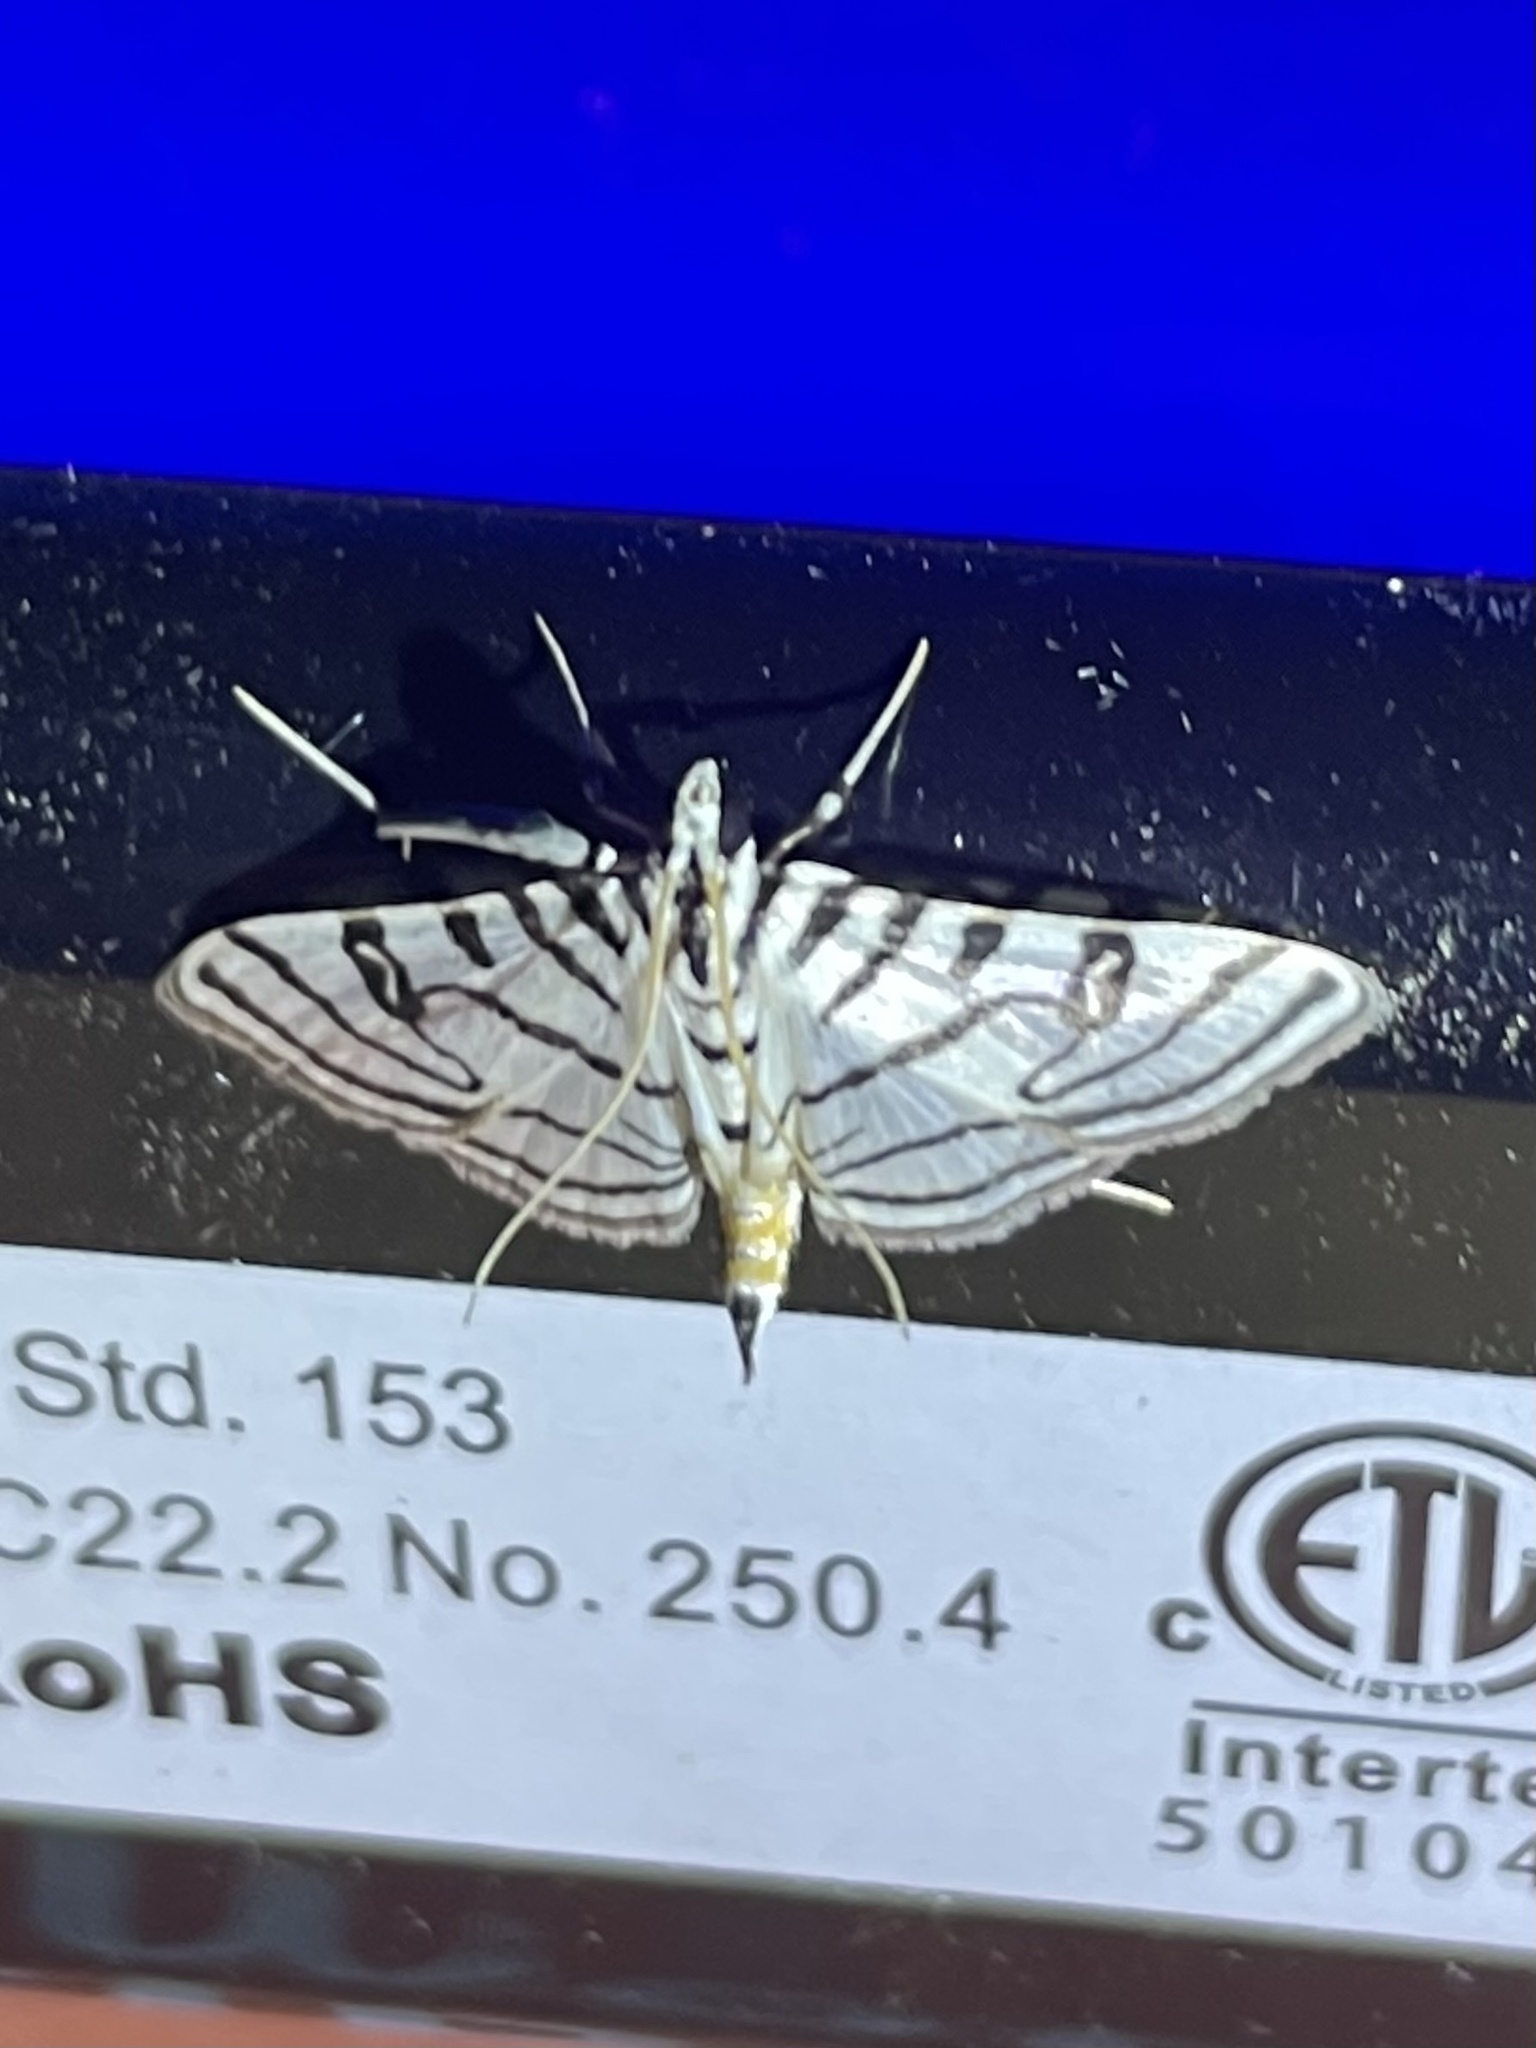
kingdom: Animalia
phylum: Arthropoda
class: Insecta
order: Lepidoptera
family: Crambidae
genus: Conchylodes
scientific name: Conchylodes ovulalis
